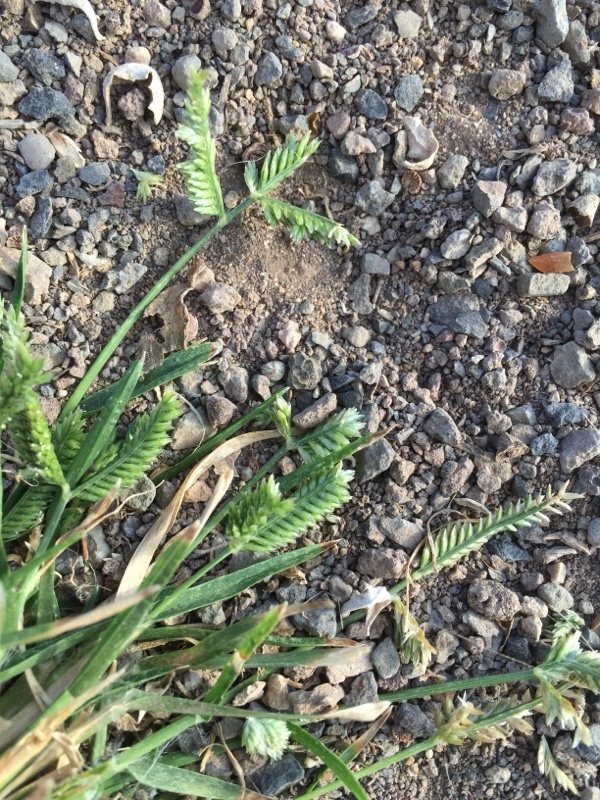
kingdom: Plantae
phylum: Tracheophyta
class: Liliopsida
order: Poales
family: Poaceae
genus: Eleusine
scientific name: Eleusine tristachya
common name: American yard-grass
